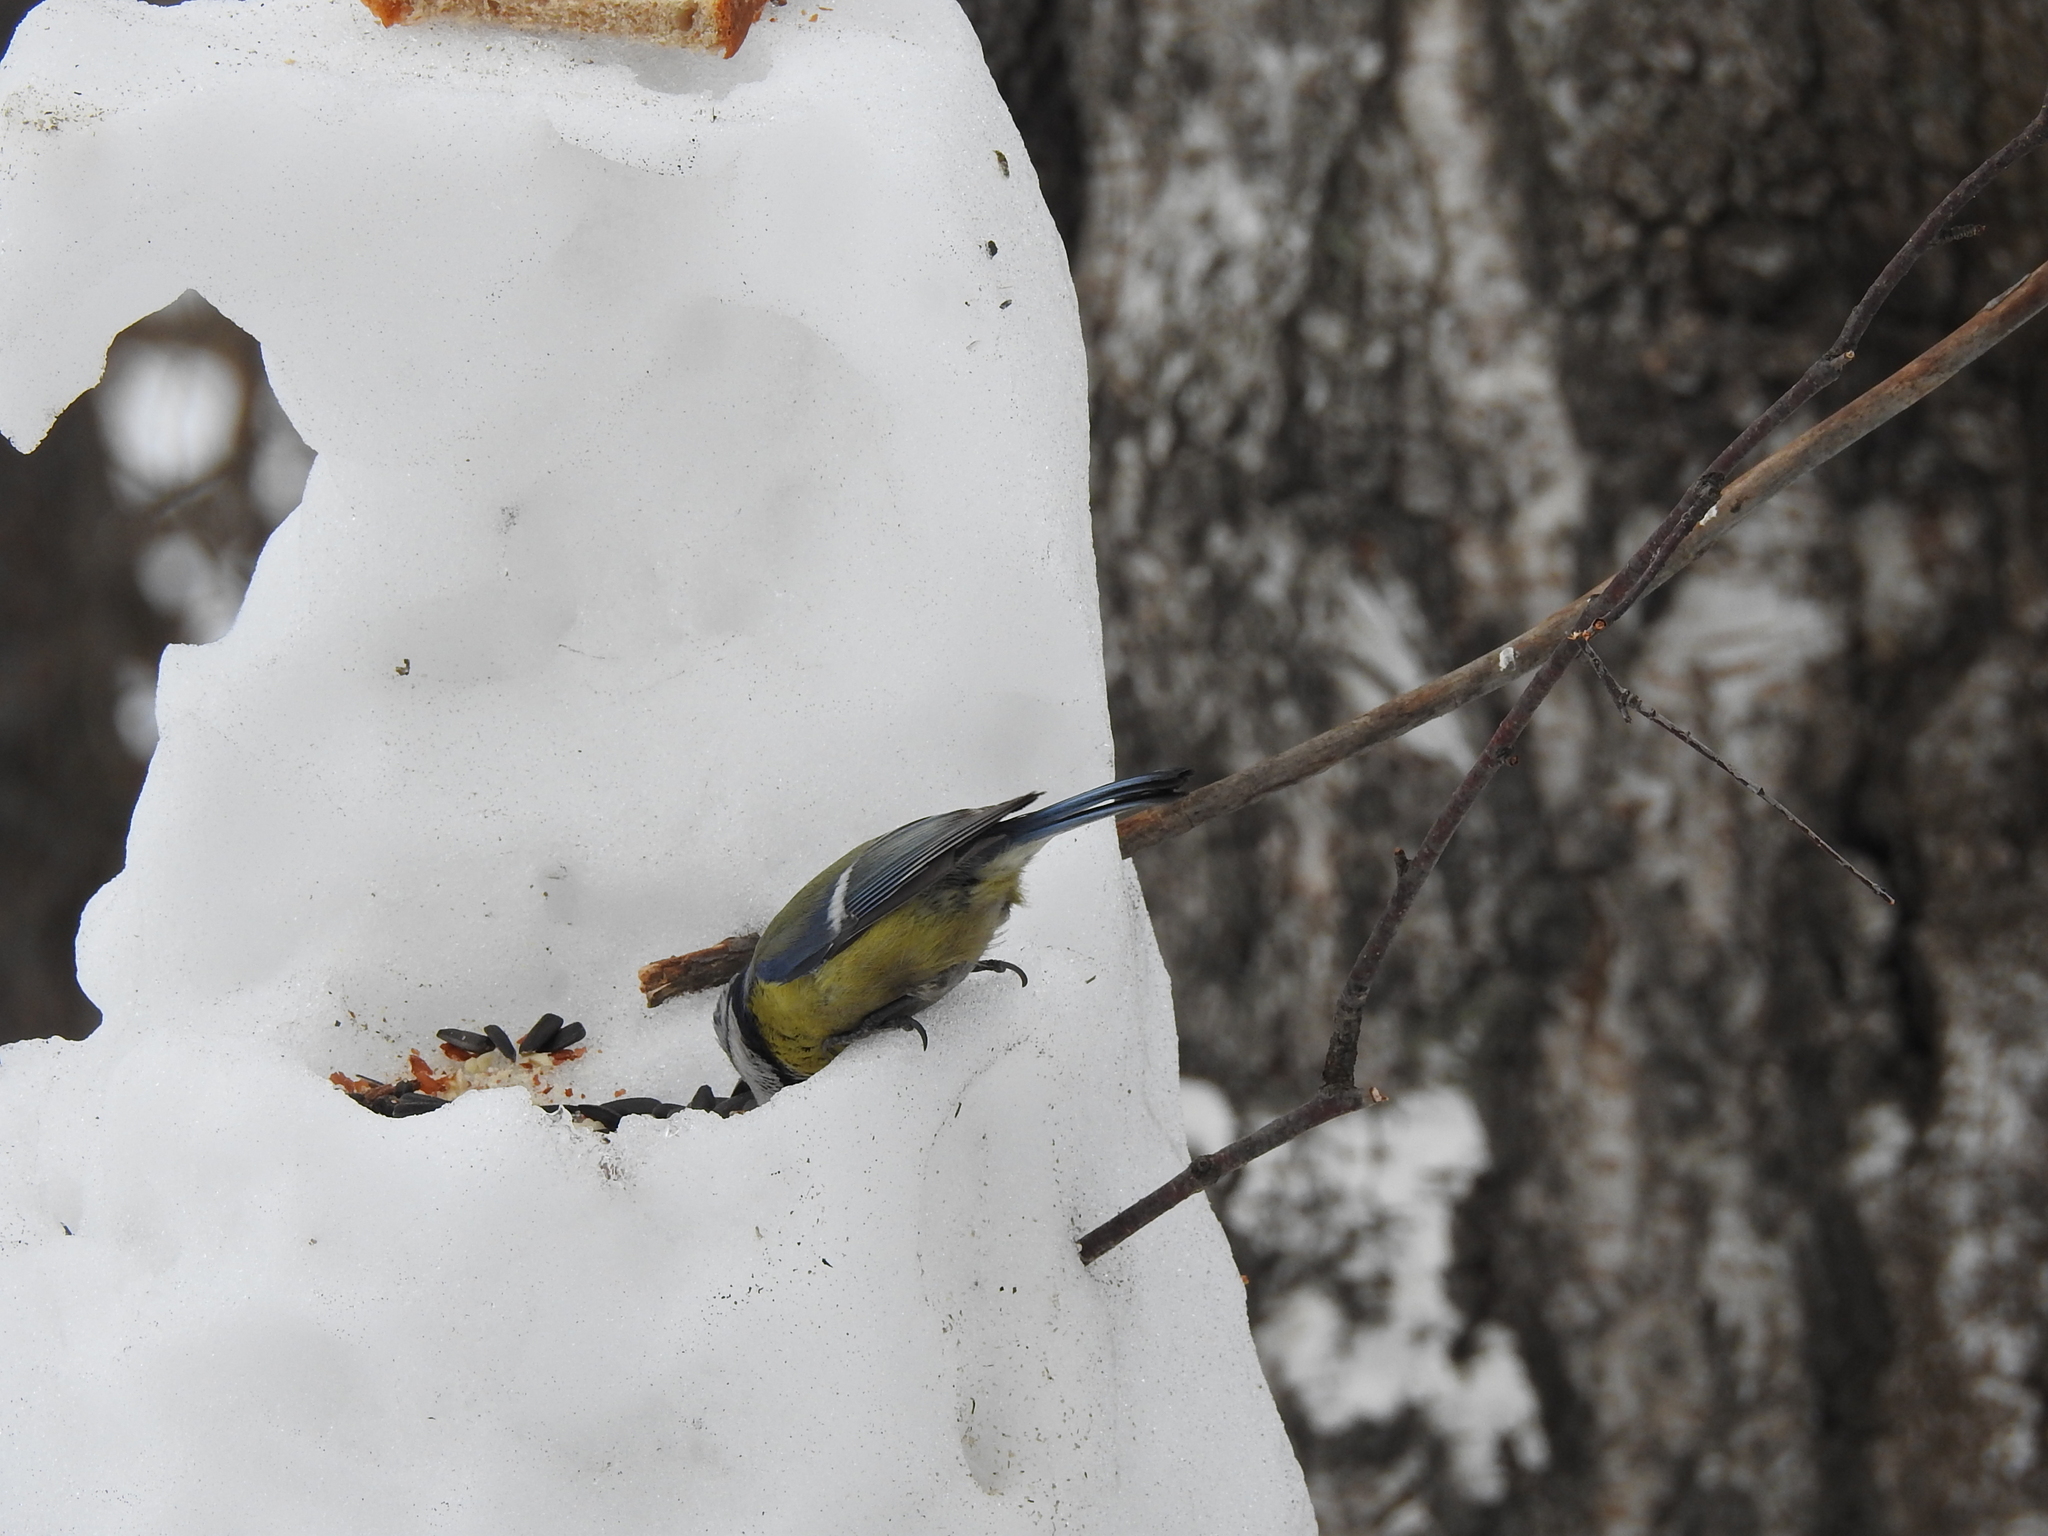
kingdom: Animalia
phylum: Chordata
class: Aves
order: Passeriformes
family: Paridae
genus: Cyanistes
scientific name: Cyanistes caeruleus
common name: Eurasian blue tit
